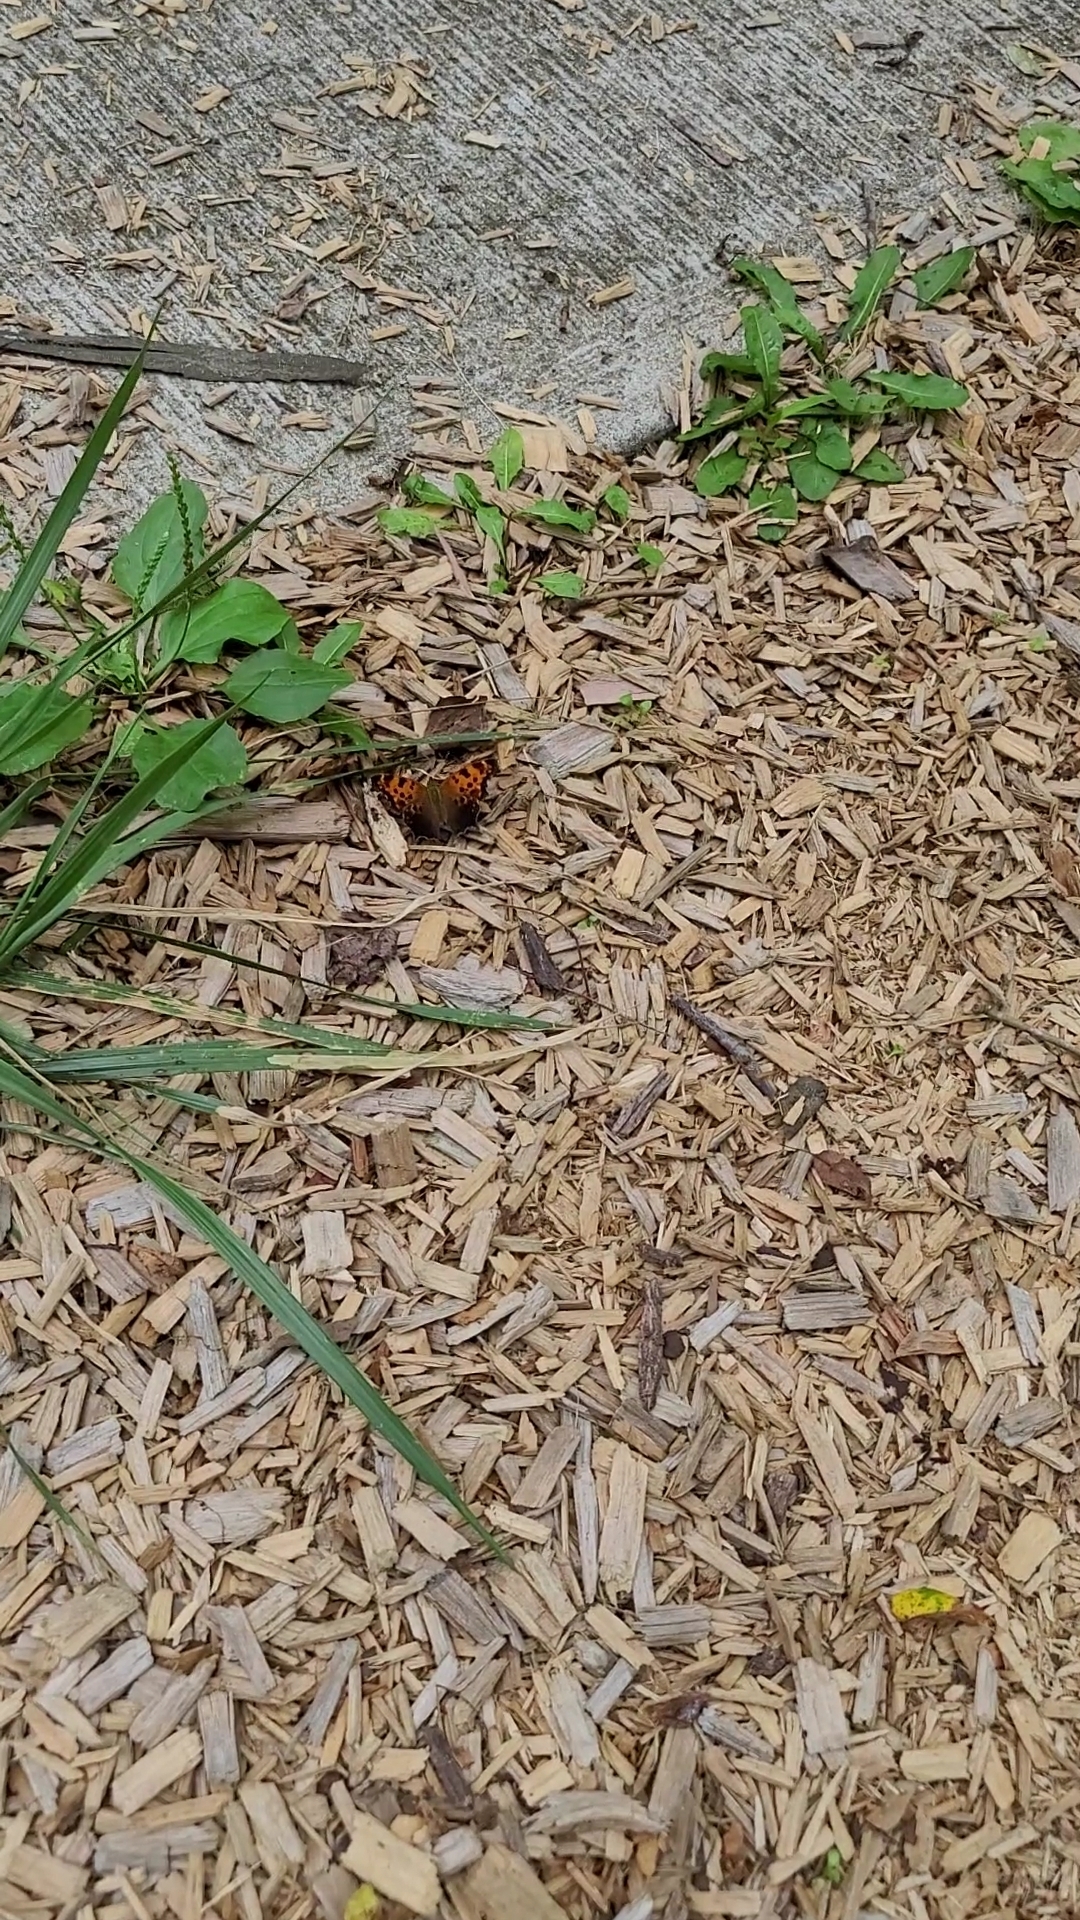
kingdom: Animalia
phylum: Arthropoda
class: Insecta
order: Lepidoptera
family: Nymphalidae
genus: Polygonia
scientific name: Polygonia comma
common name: Eastern comma
